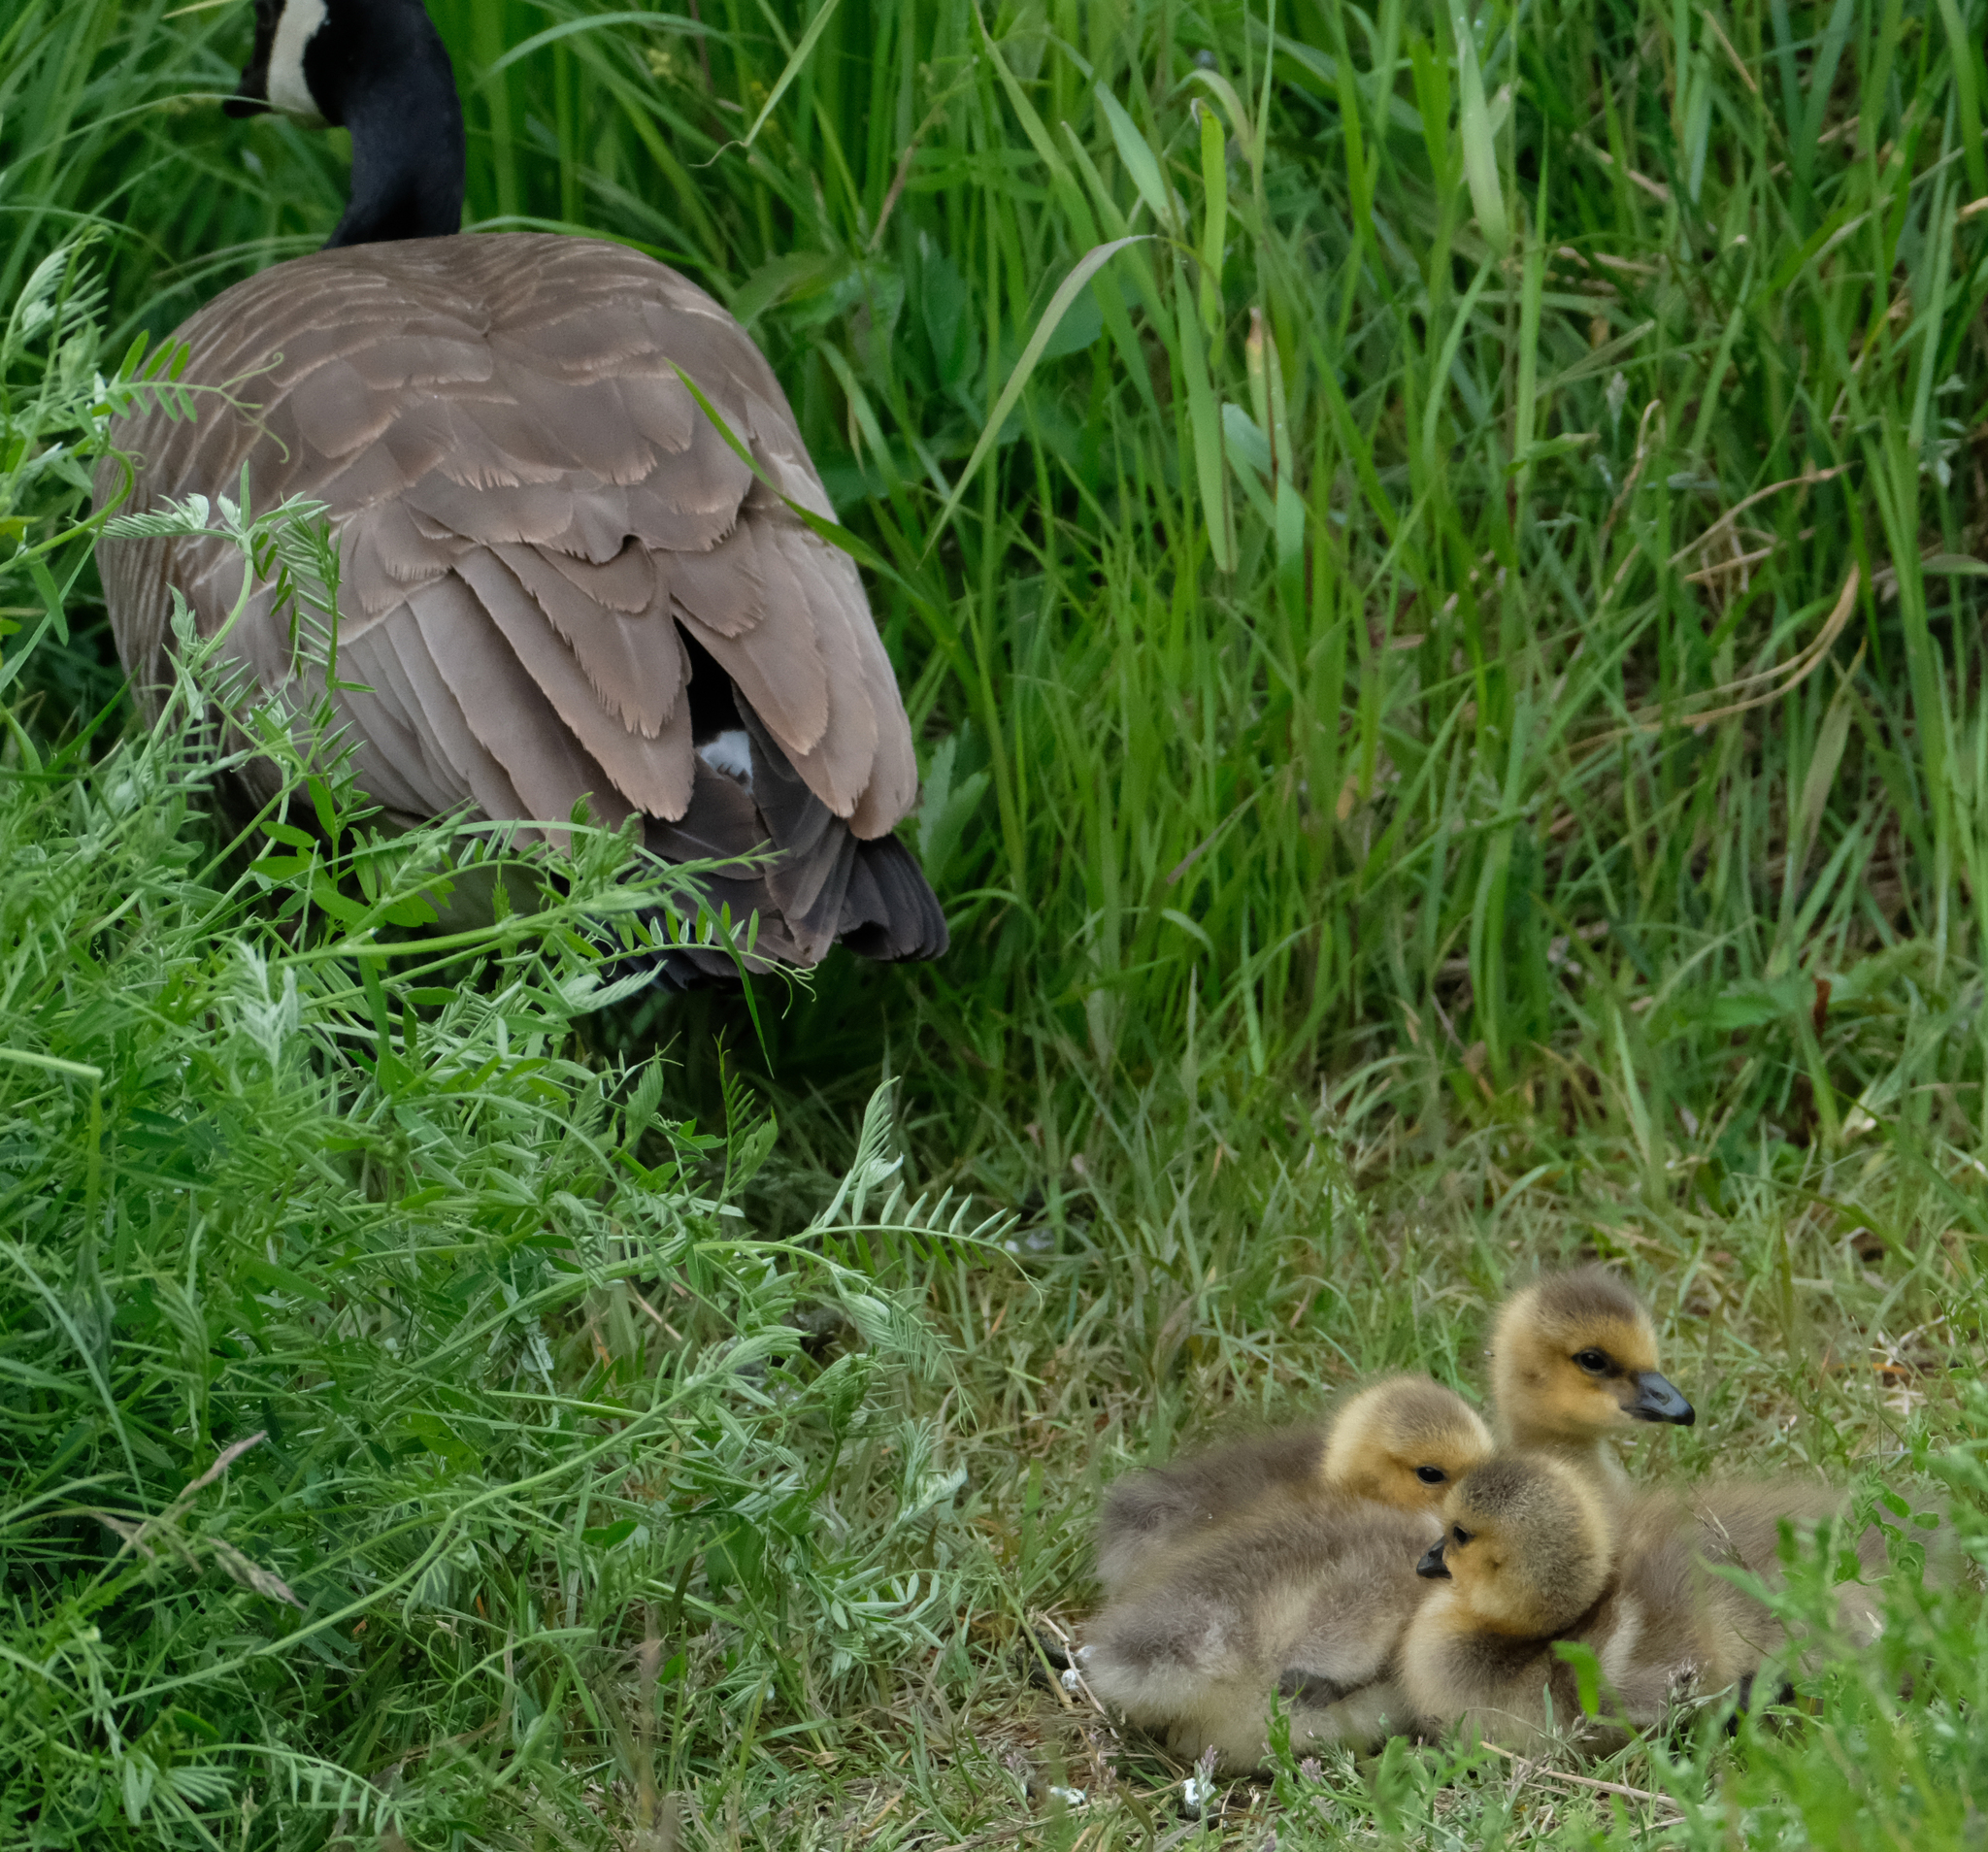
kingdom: Animalia
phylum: Chordata
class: Aves
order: Anseriformes
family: Anatidae
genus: Branta
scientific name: Branta canadensis
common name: Canada goose
